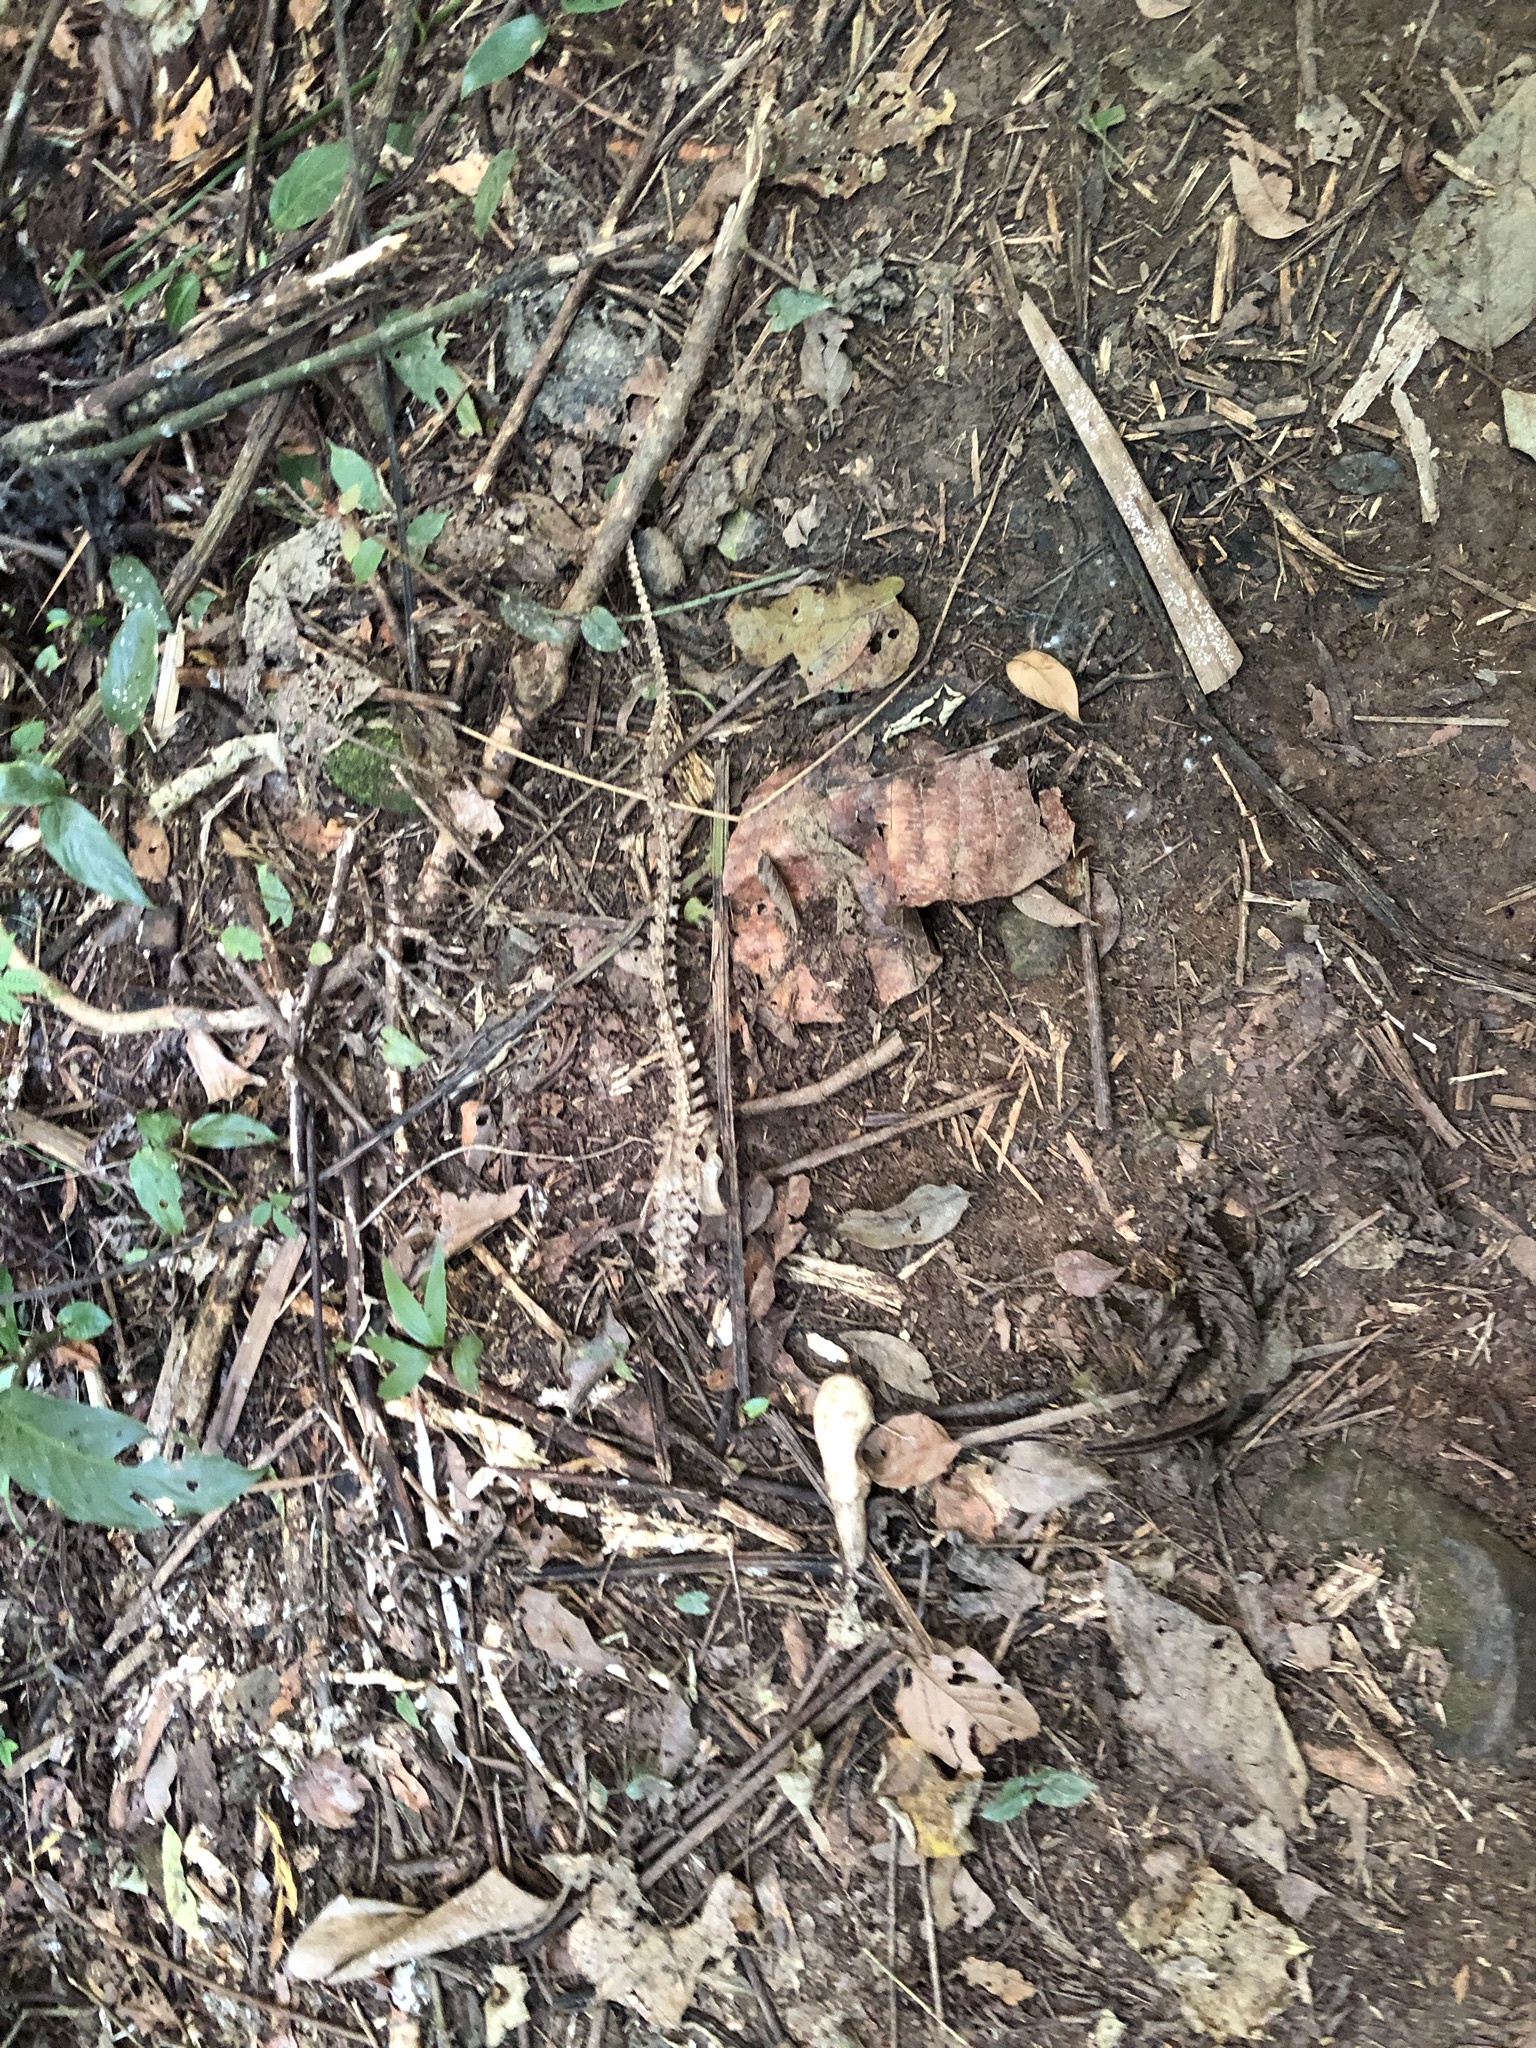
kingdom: Animalia
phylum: Chordata
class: Mammalia
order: Pilosa
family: Myrmecophagidae
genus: Tamandua
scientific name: Tamandua mexicana
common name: Northern tamandua
